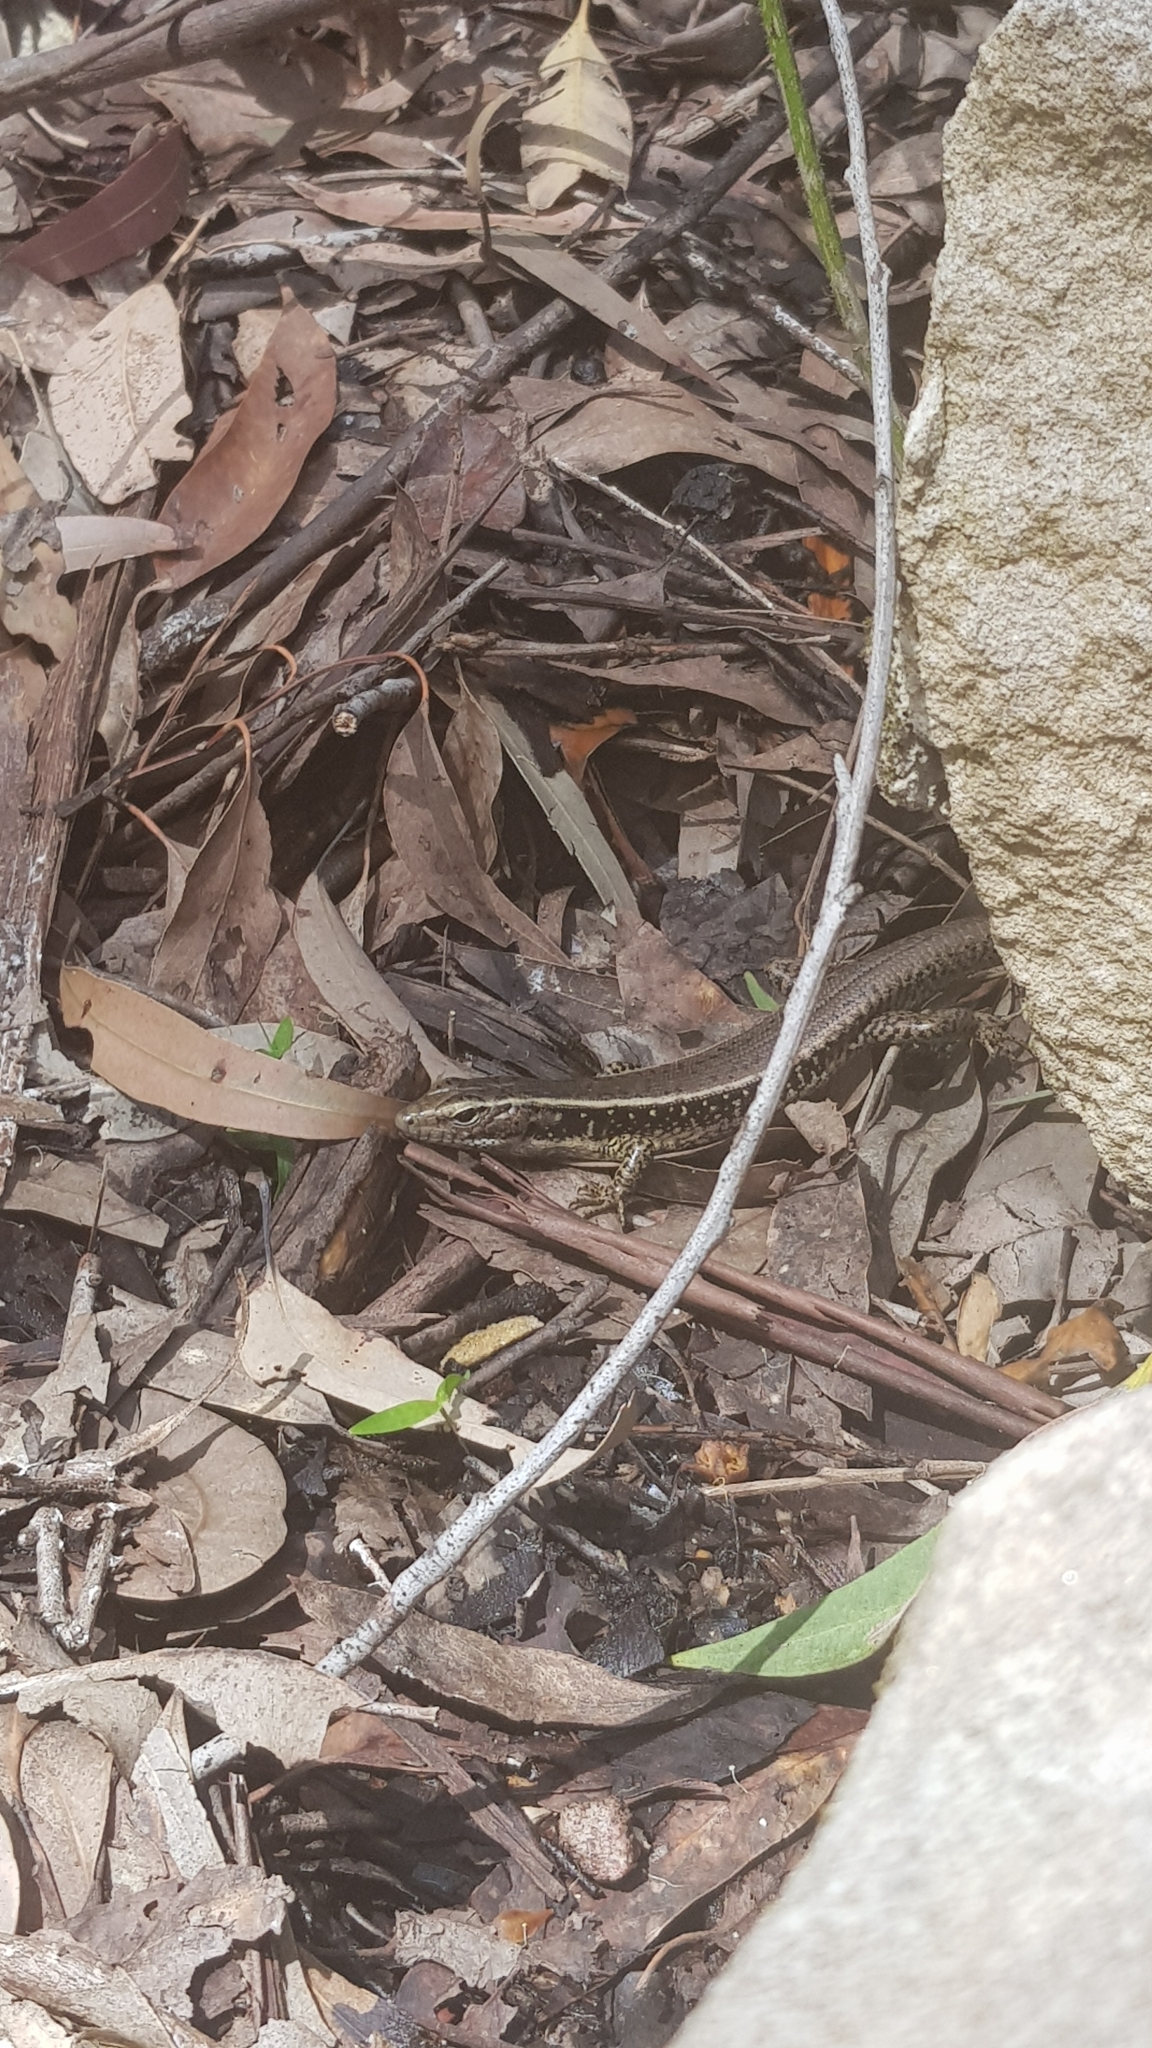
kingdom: Animalia
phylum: Chordata
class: Squamata
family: Scincidae
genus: Eulamprus
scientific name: Eulamprus quoyii
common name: Eastern water skink
